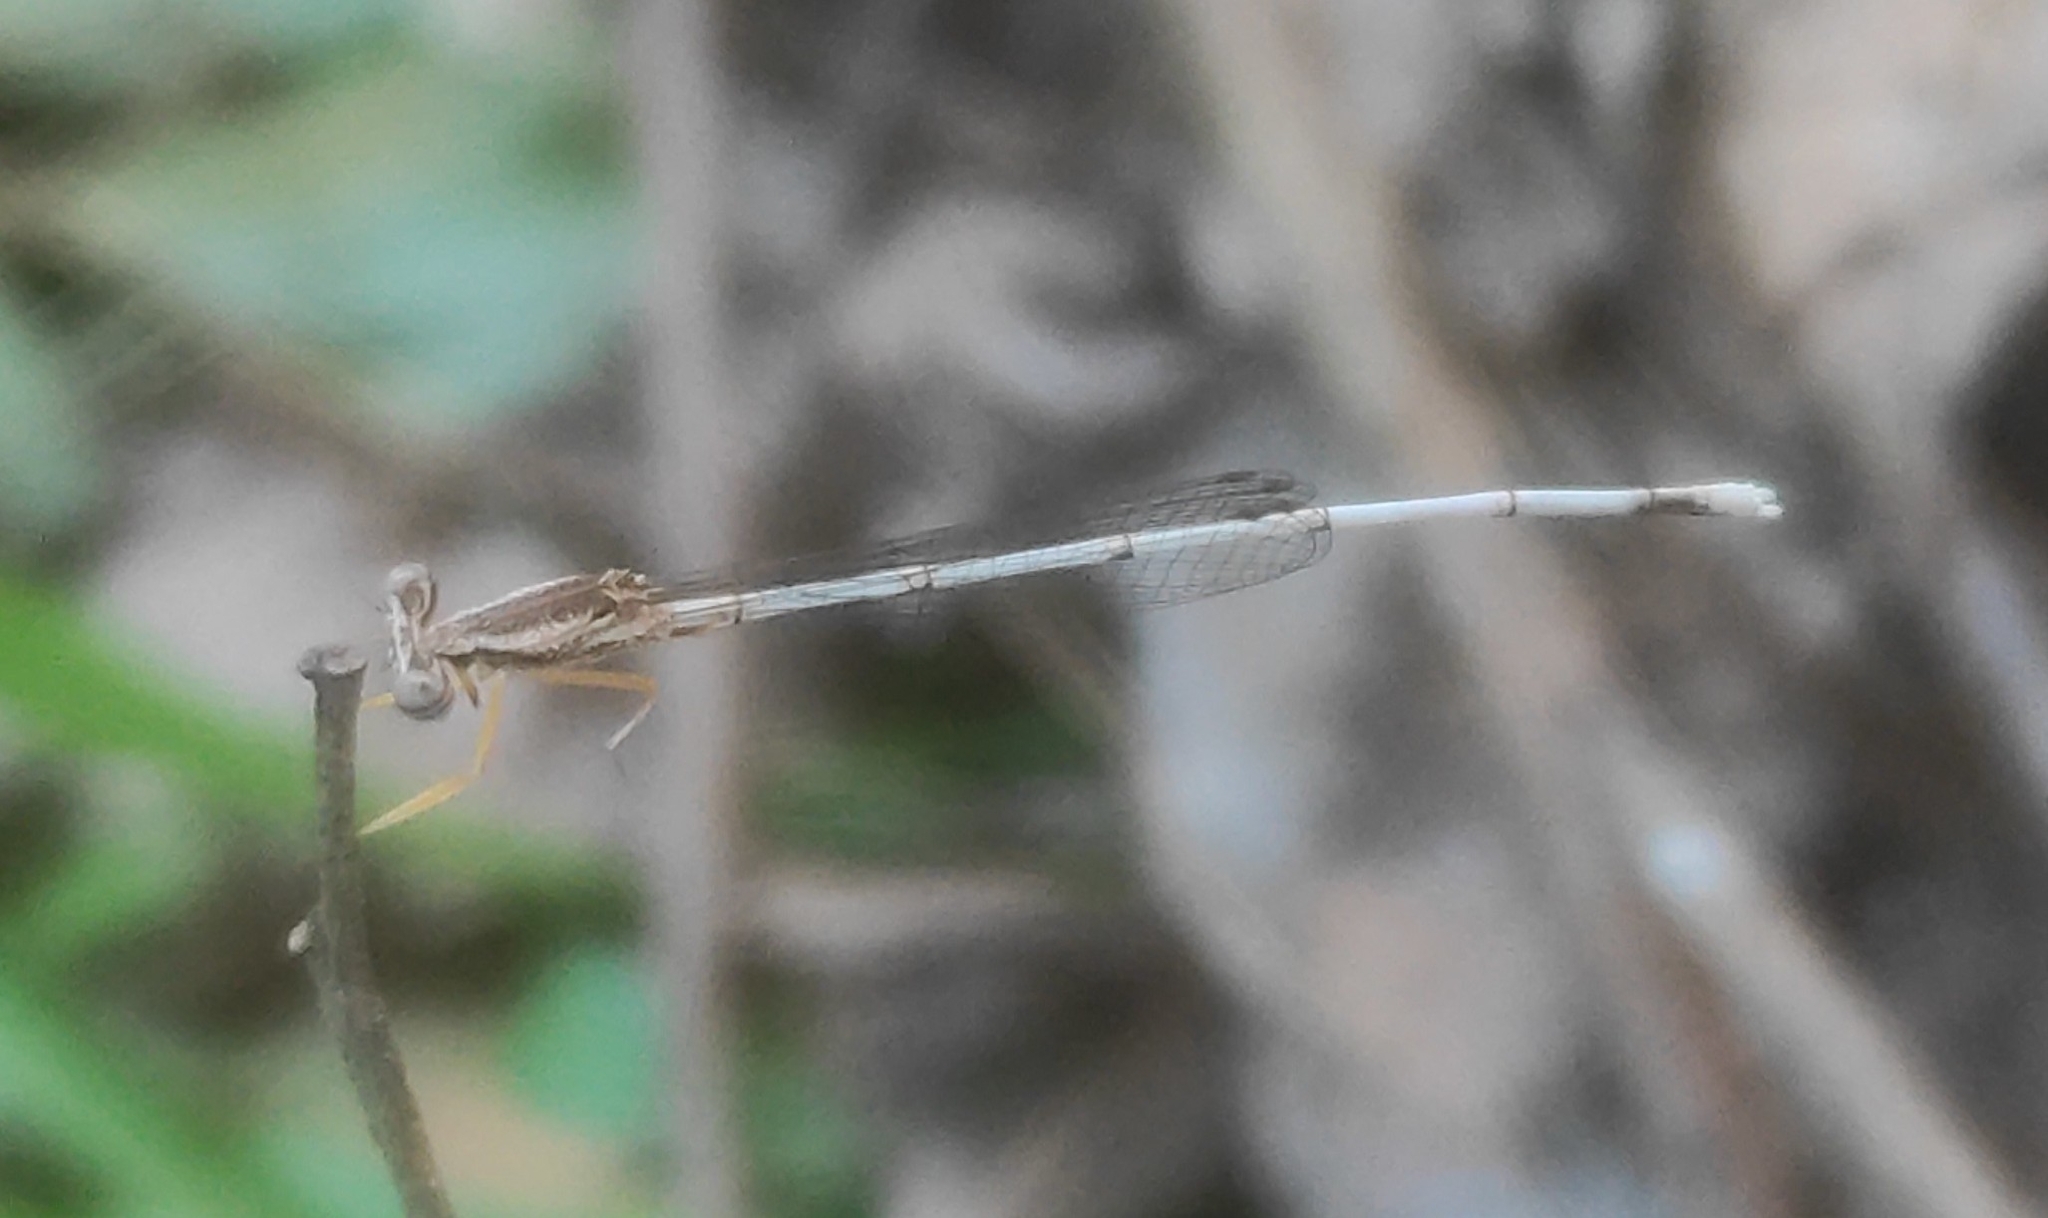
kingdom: Animalia
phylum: Arthropoda
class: Insecta
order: Odonata
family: Platycnemididae
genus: Copera
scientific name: Copera marginipes
